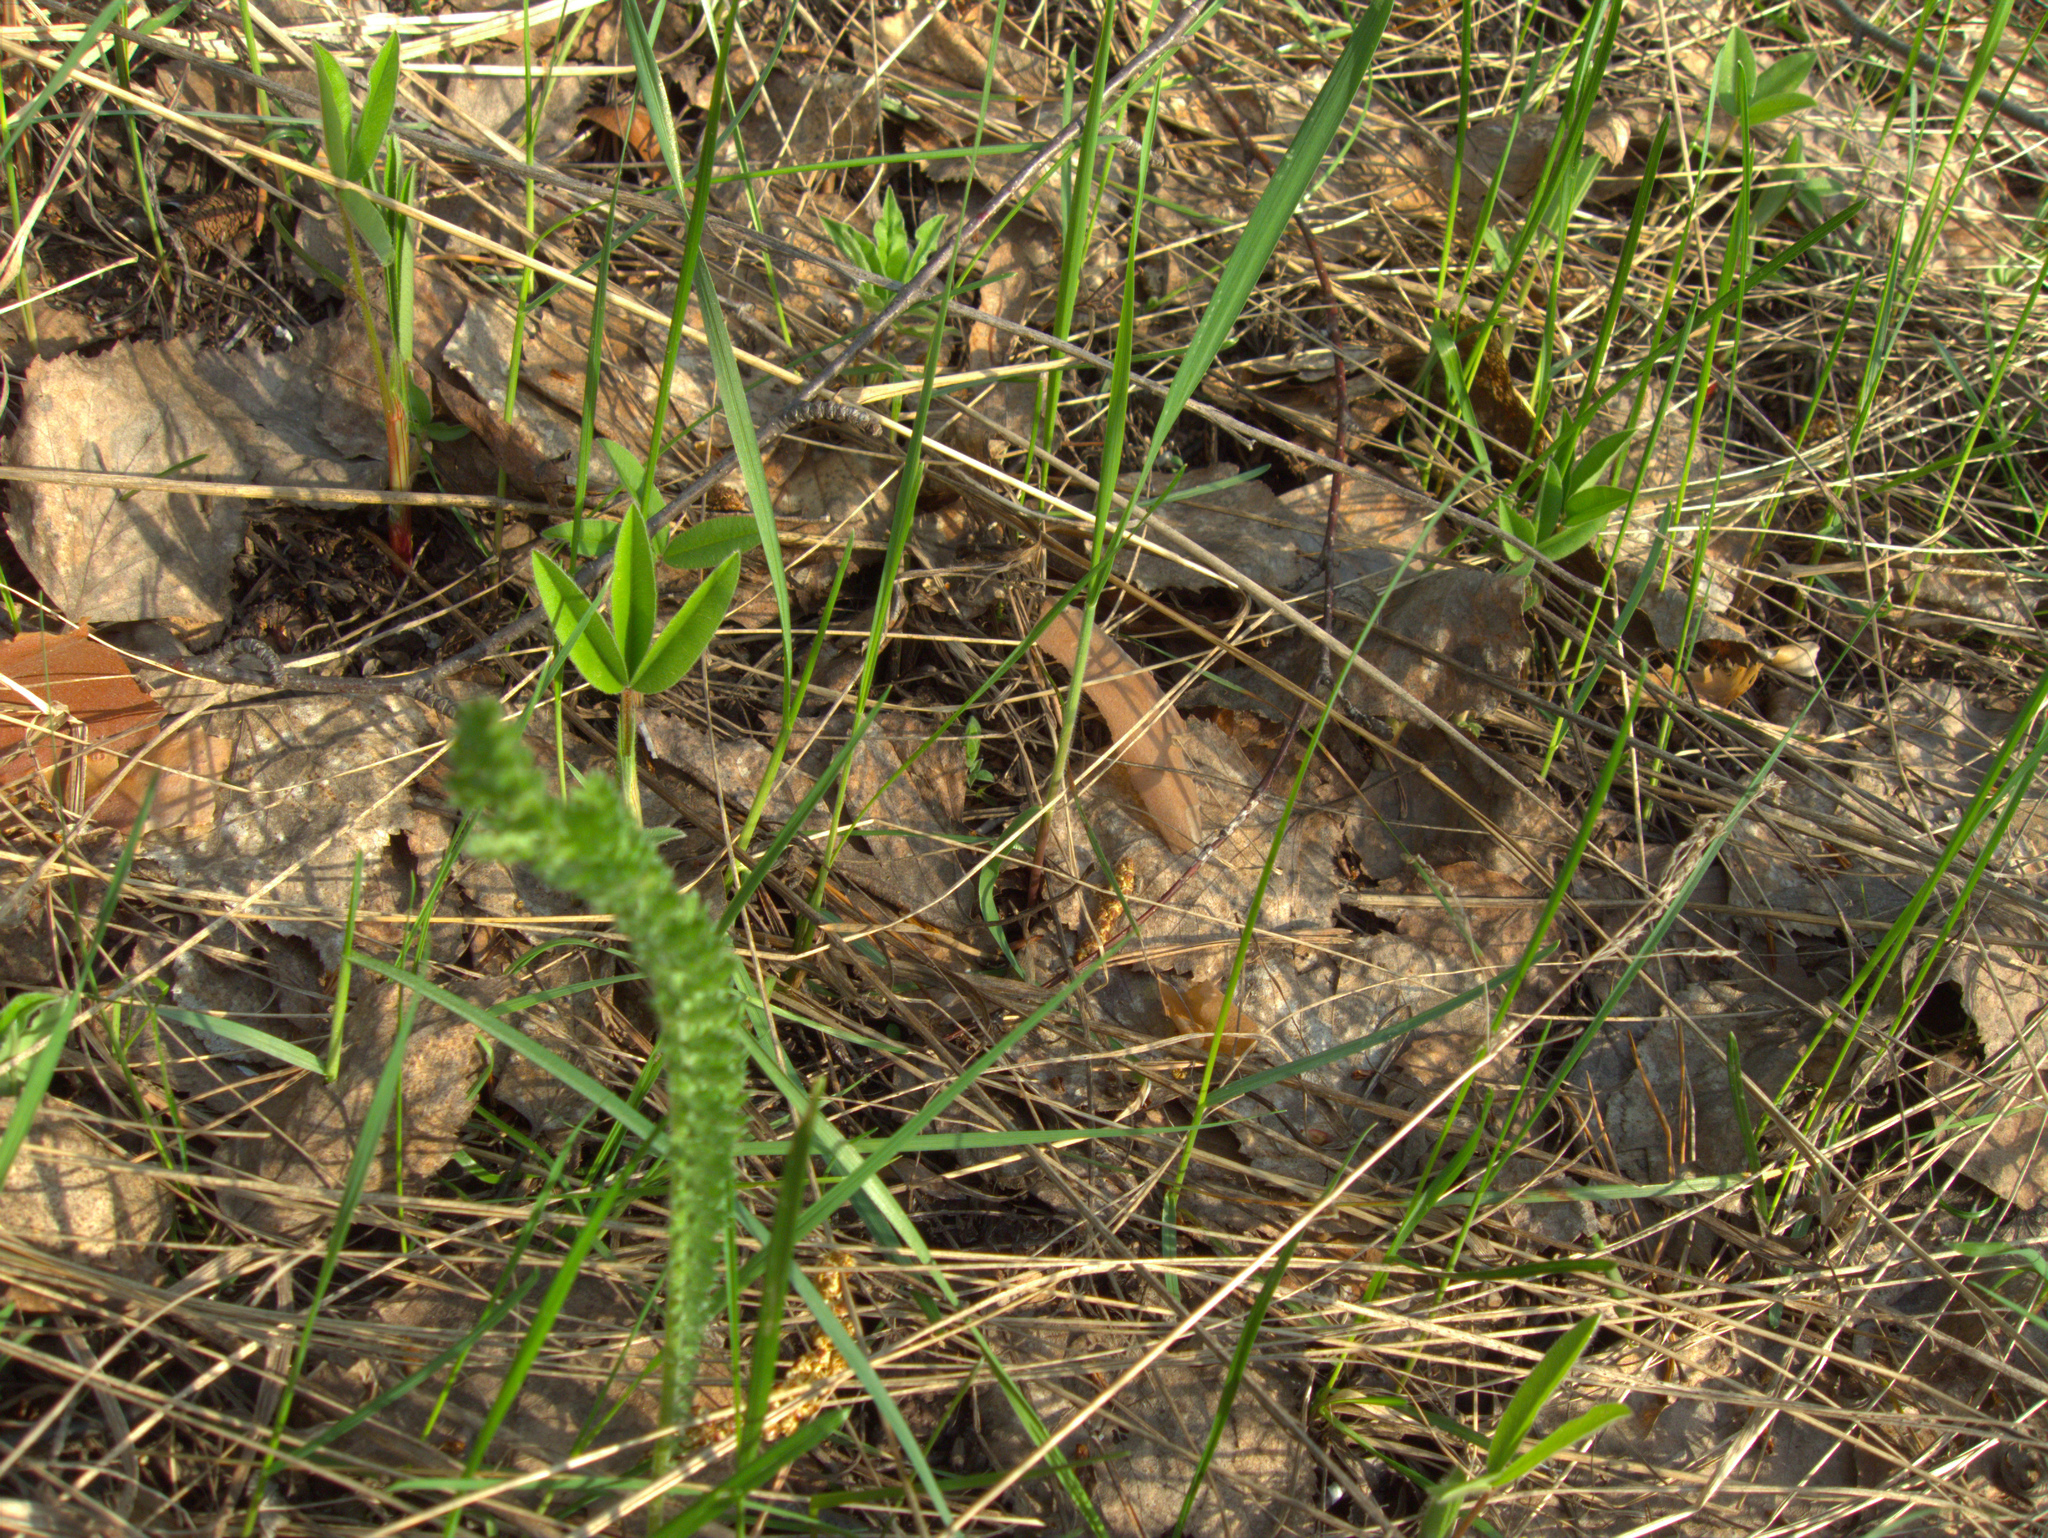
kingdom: Plantae
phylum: Tracheophyta
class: Magnoliopsida
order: Asterales
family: Asteraceae
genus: Achillea
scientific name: Achillea millefolium
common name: Yarrow
